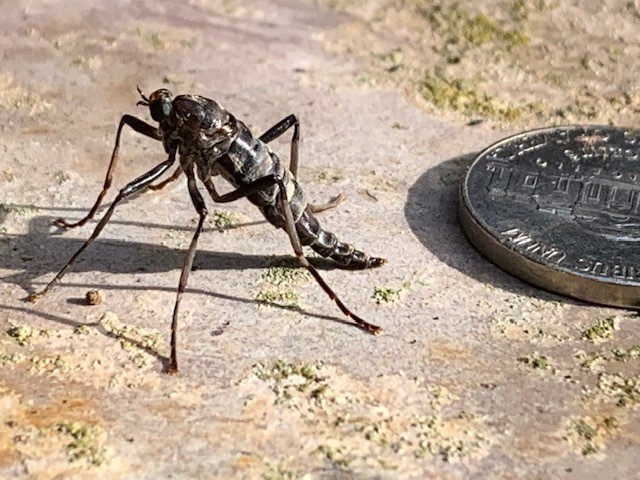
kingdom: Animalia
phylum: Arthropoda
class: Insecta
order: Diptera
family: Stratiomyidae
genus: Boreoides
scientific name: Boreoides subulatus
